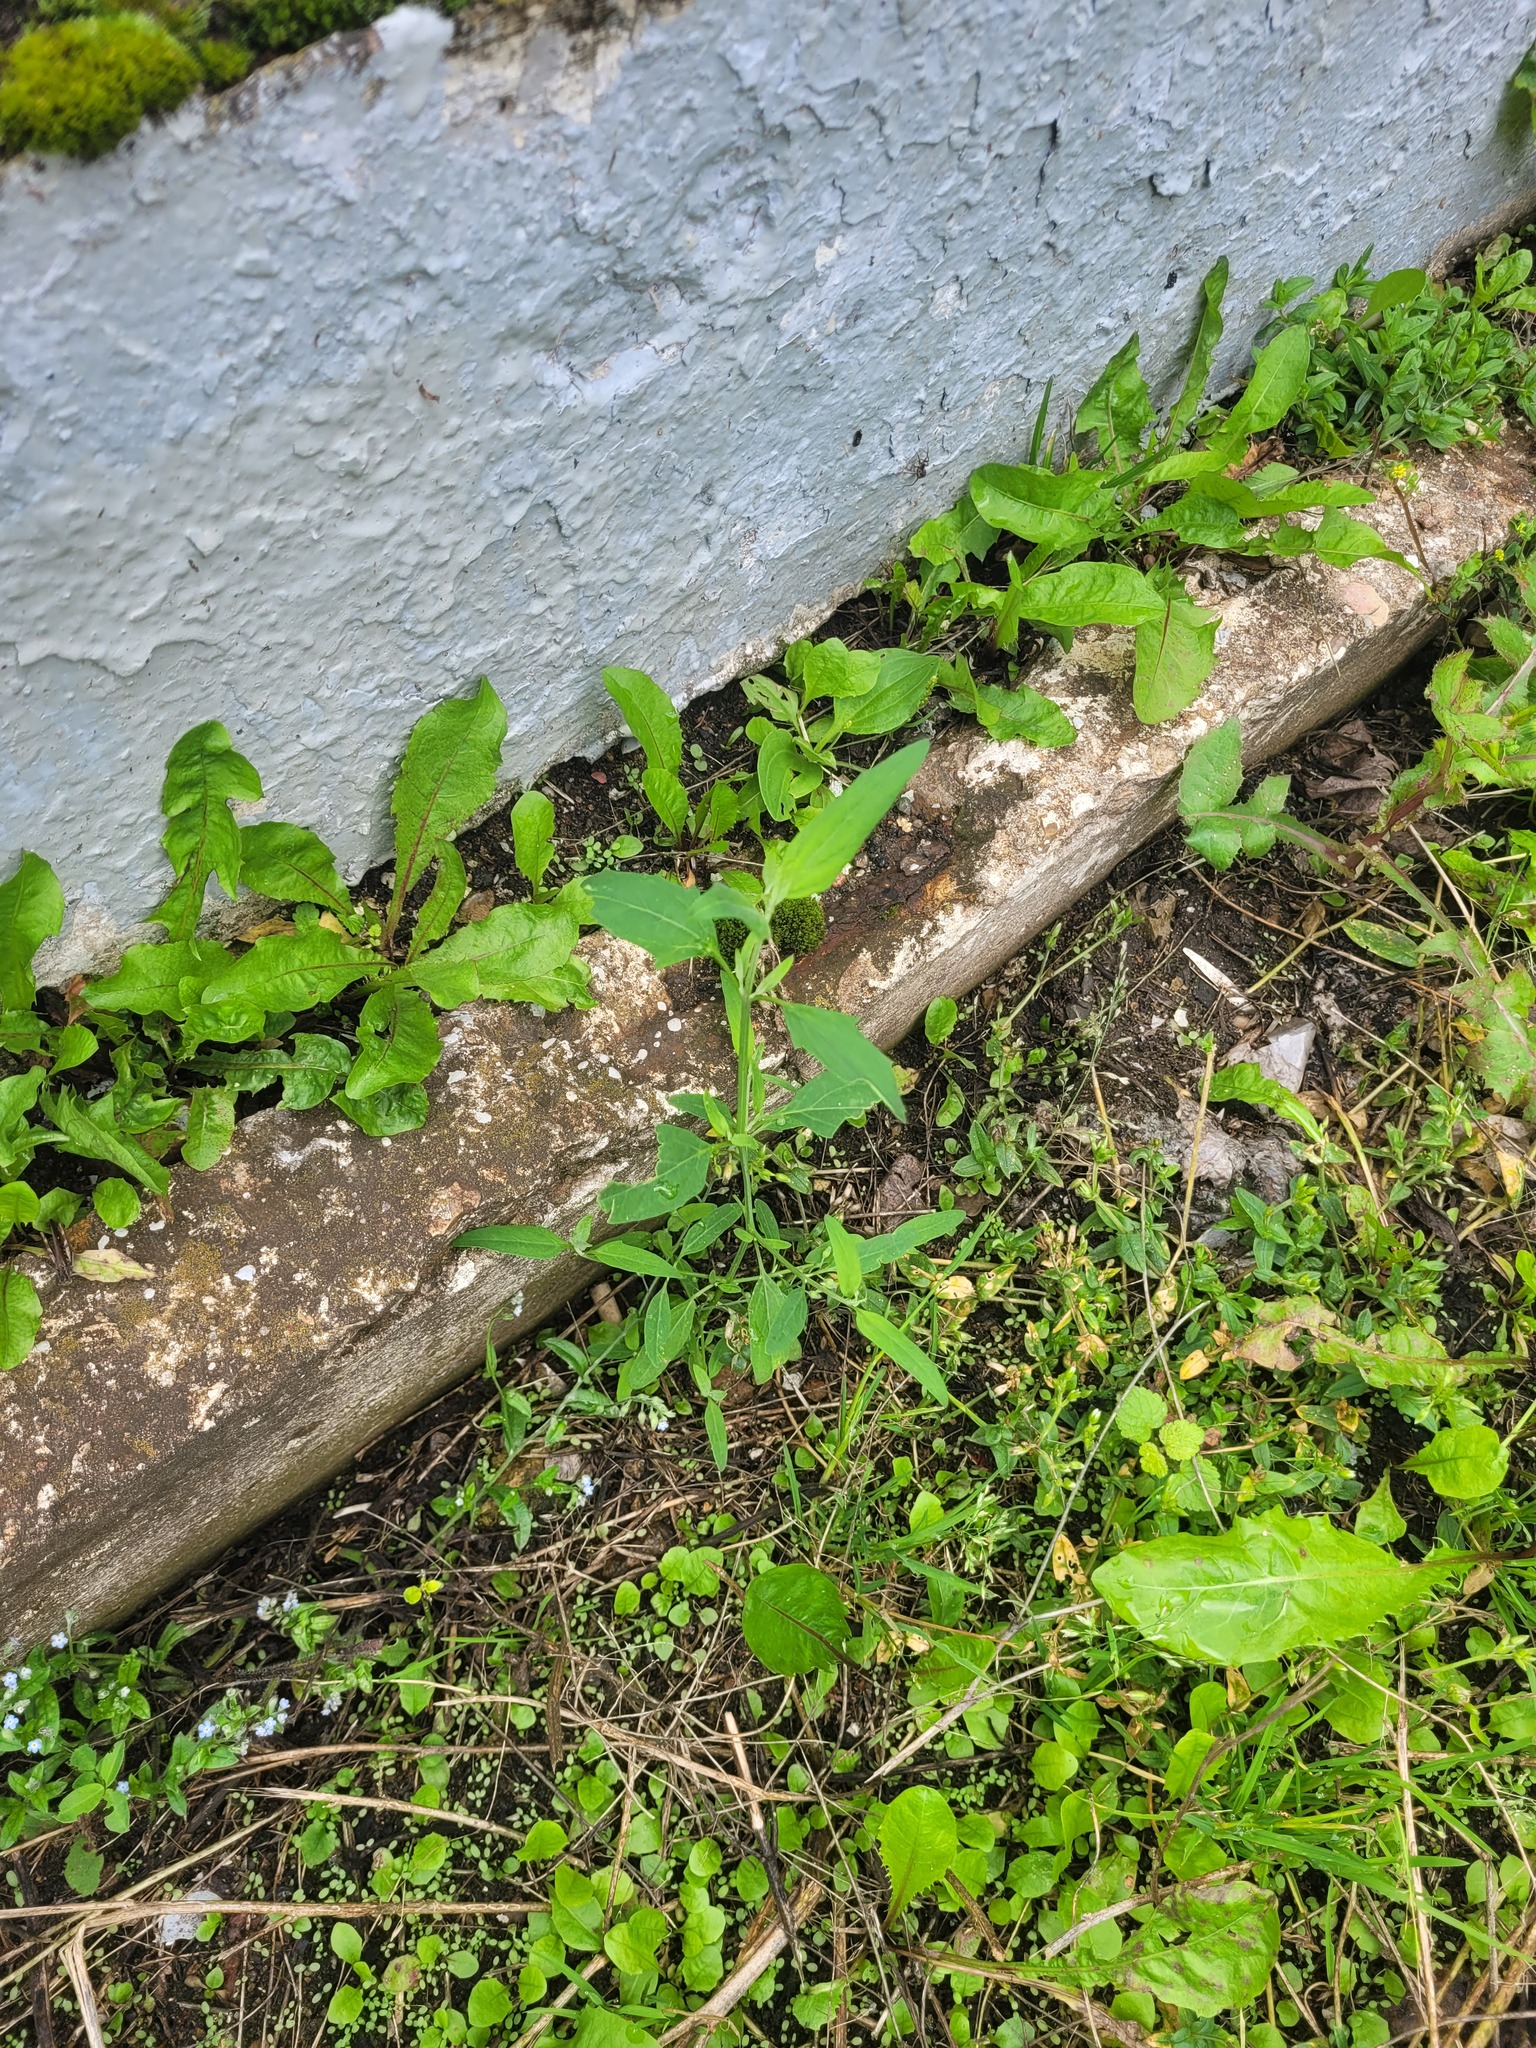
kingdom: Plantae
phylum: Tracheophyta
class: Magnoliopsida
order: Caryophyllales
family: Amaranthaceae
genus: Atriplex
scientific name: Atriplex patula
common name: Common orache
